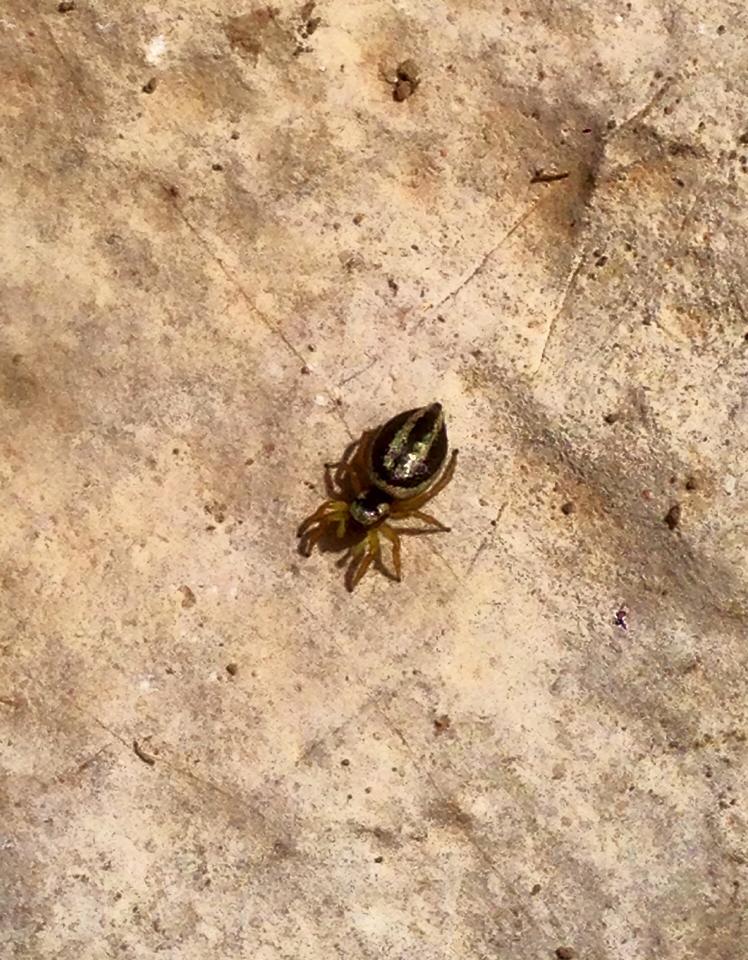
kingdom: Animalia
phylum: Arthropoda
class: Arachnida
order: Araneae
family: Salticidae
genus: Heliophanus
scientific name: Heliophanus melinus
